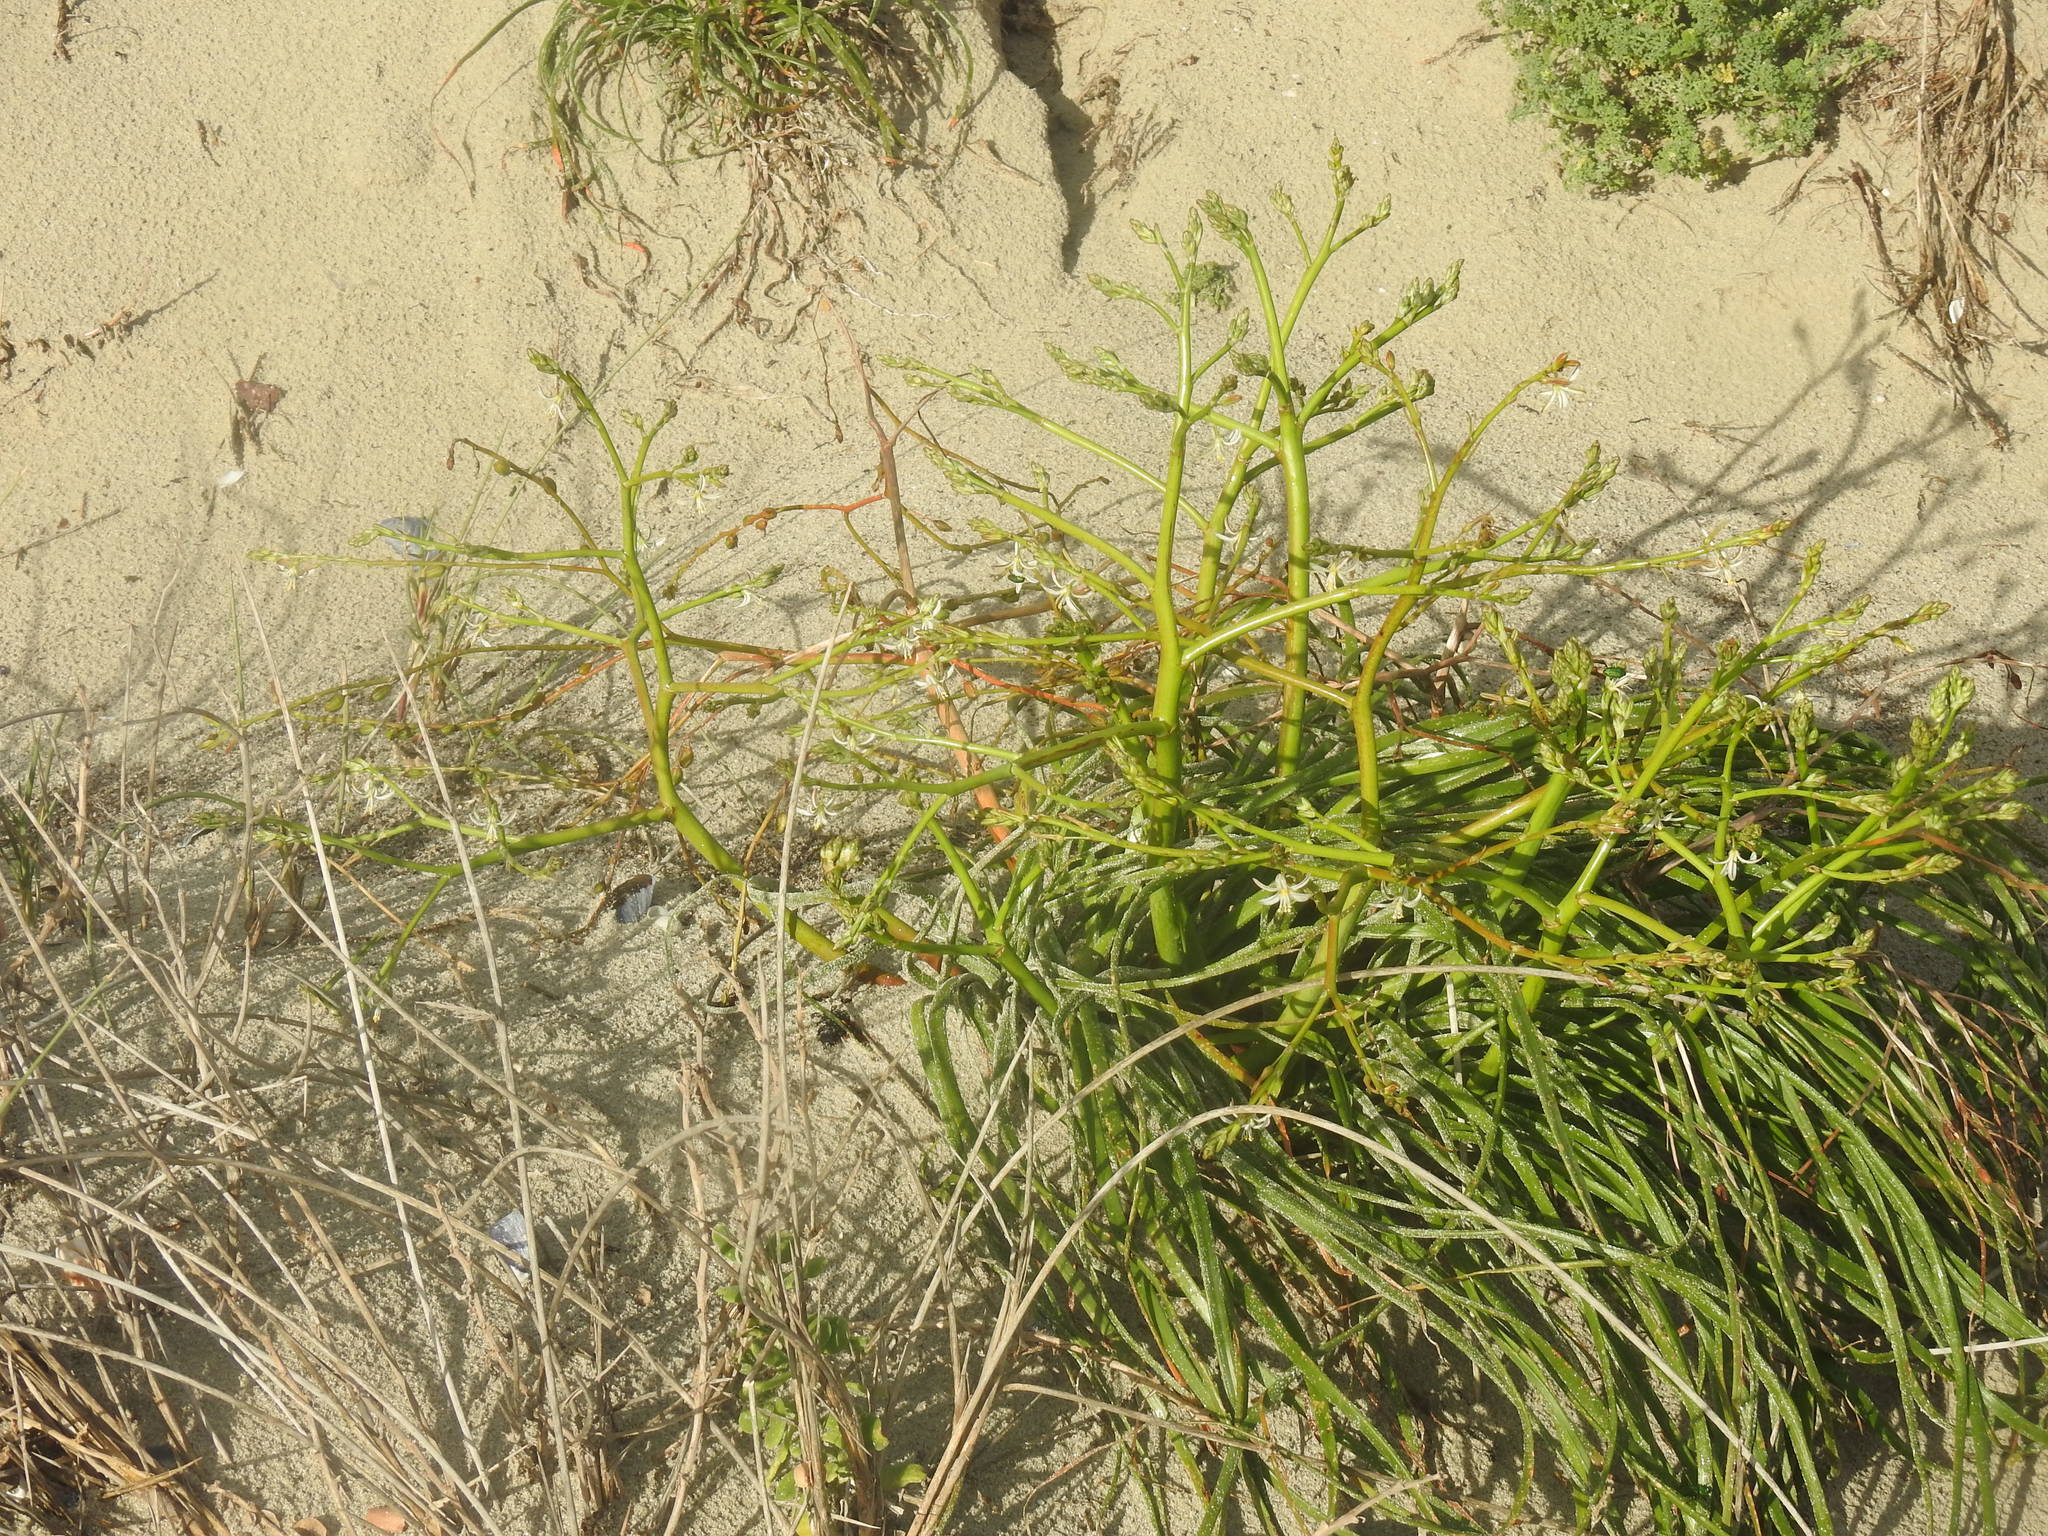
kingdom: Plantae
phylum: Tracheophyta
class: Liliopsida
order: Asparagales
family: Asphodelaceae
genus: Trachyandra
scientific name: Trachyandra divaricata
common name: Dune onionweed
